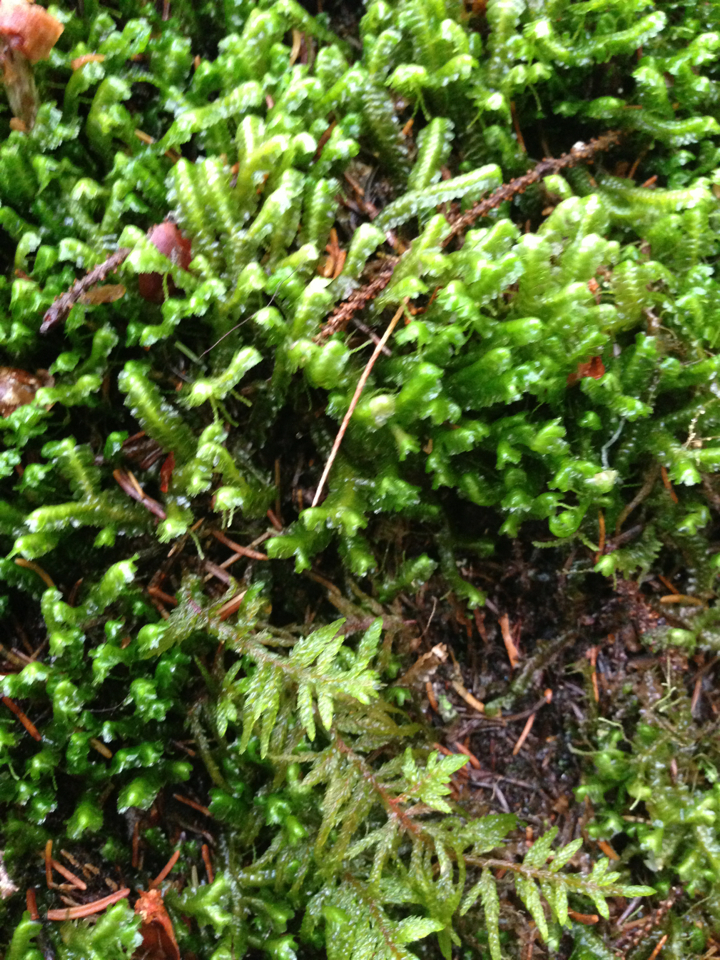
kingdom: Plantae
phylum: Marchantiophyta
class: Jungermanniopsida
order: Jungermanniales
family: Lepidoziaceae
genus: Bazzania
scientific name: Bazzania trilobata
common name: Three-lobed whipwort
